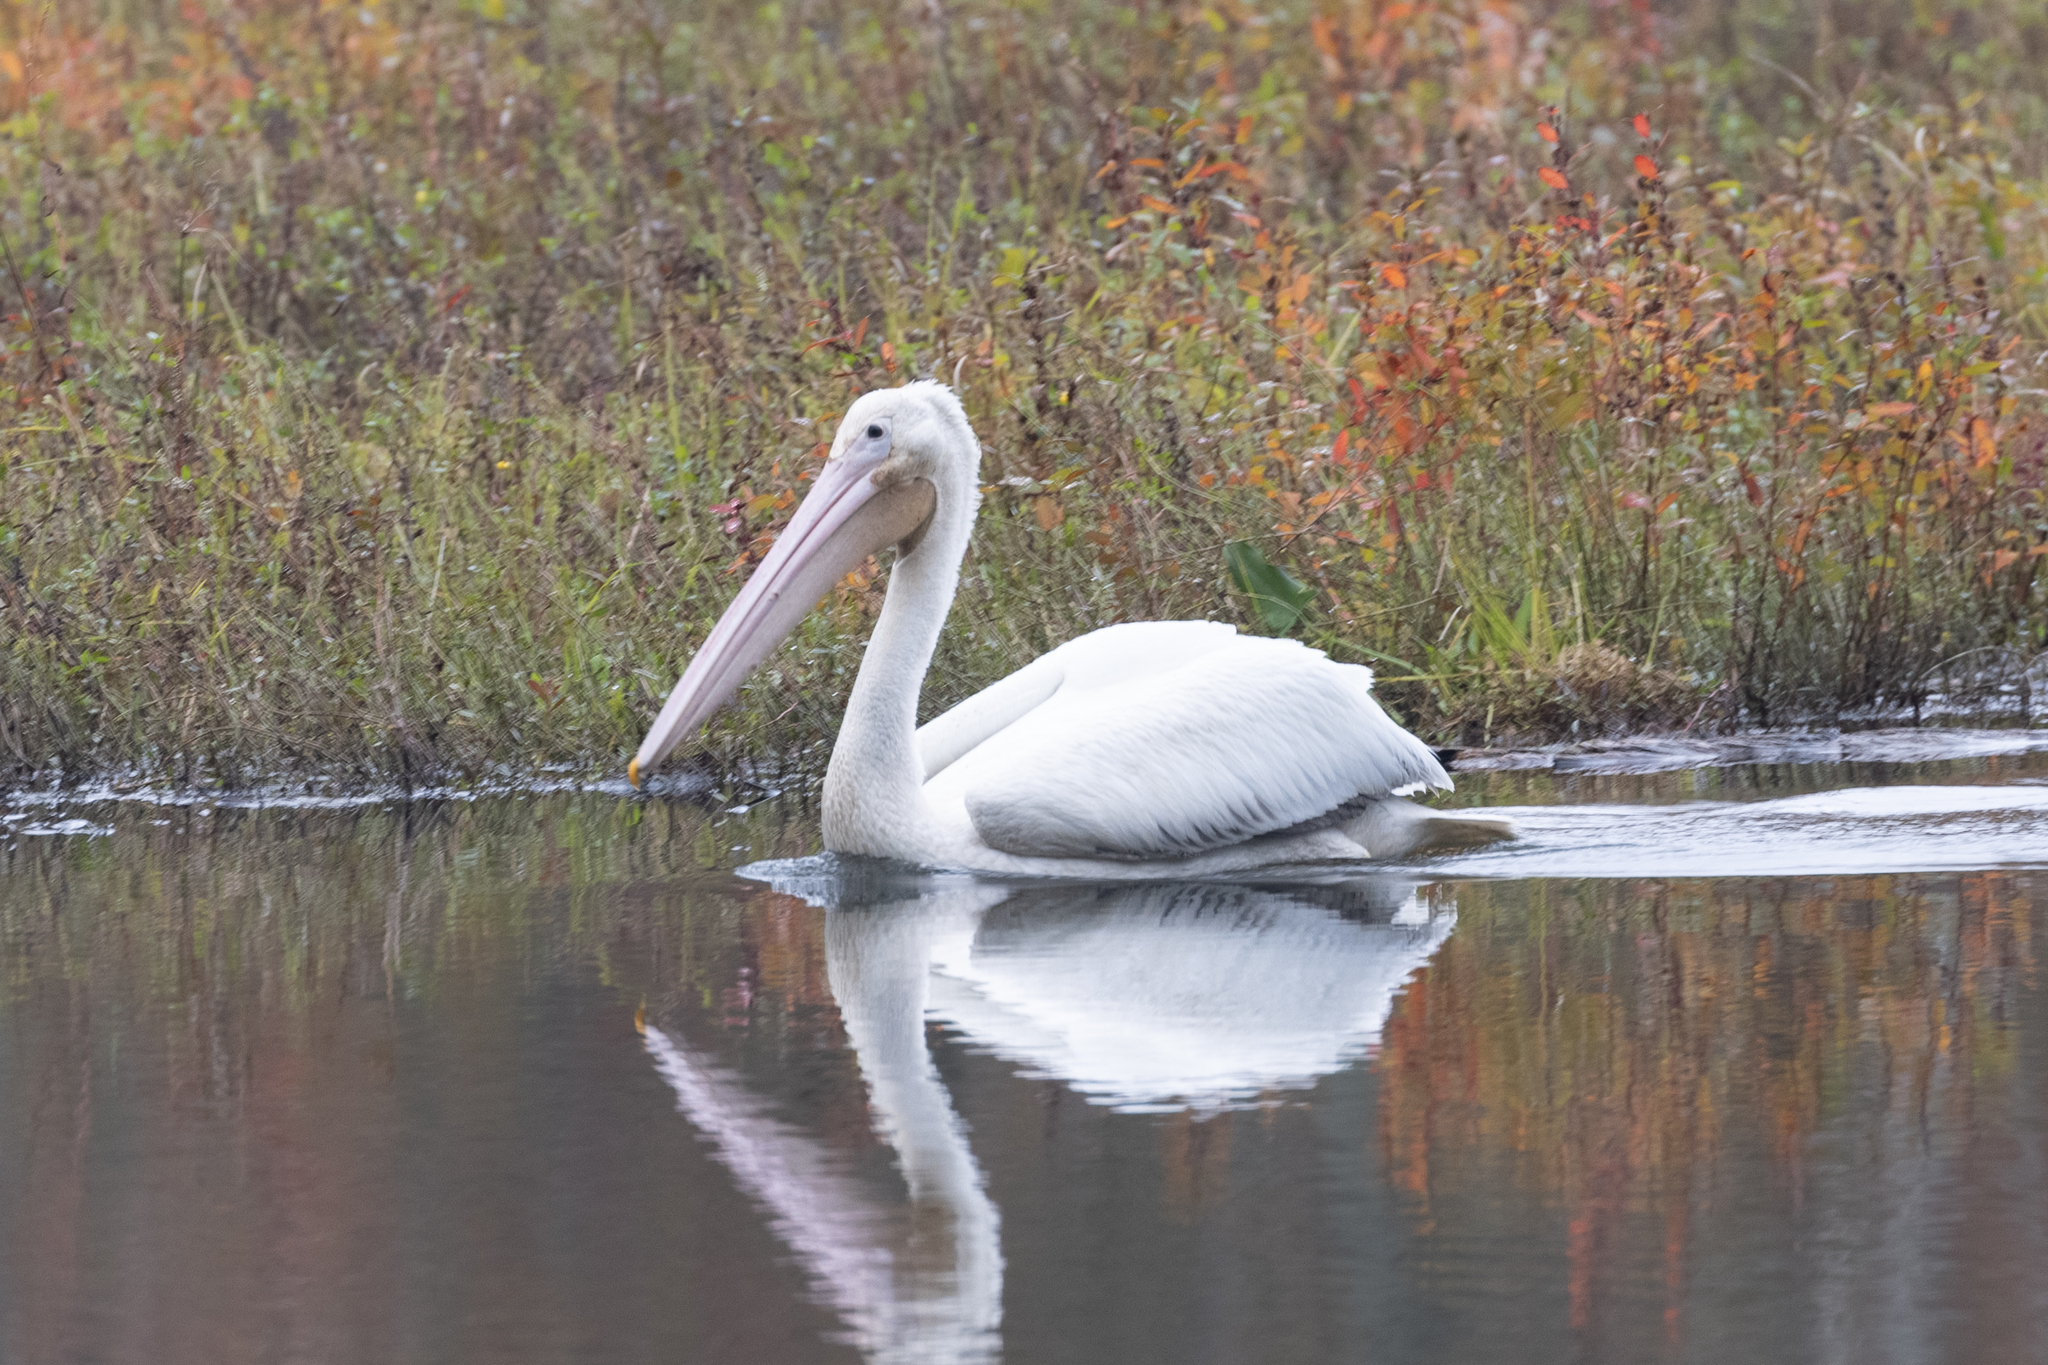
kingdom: Animalia
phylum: Chordata
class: Aves
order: Pelecaniformes
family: Pelecanidae
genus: Pelecanus
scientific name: Pelecanus erythrorhynchos
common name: American white pelican
